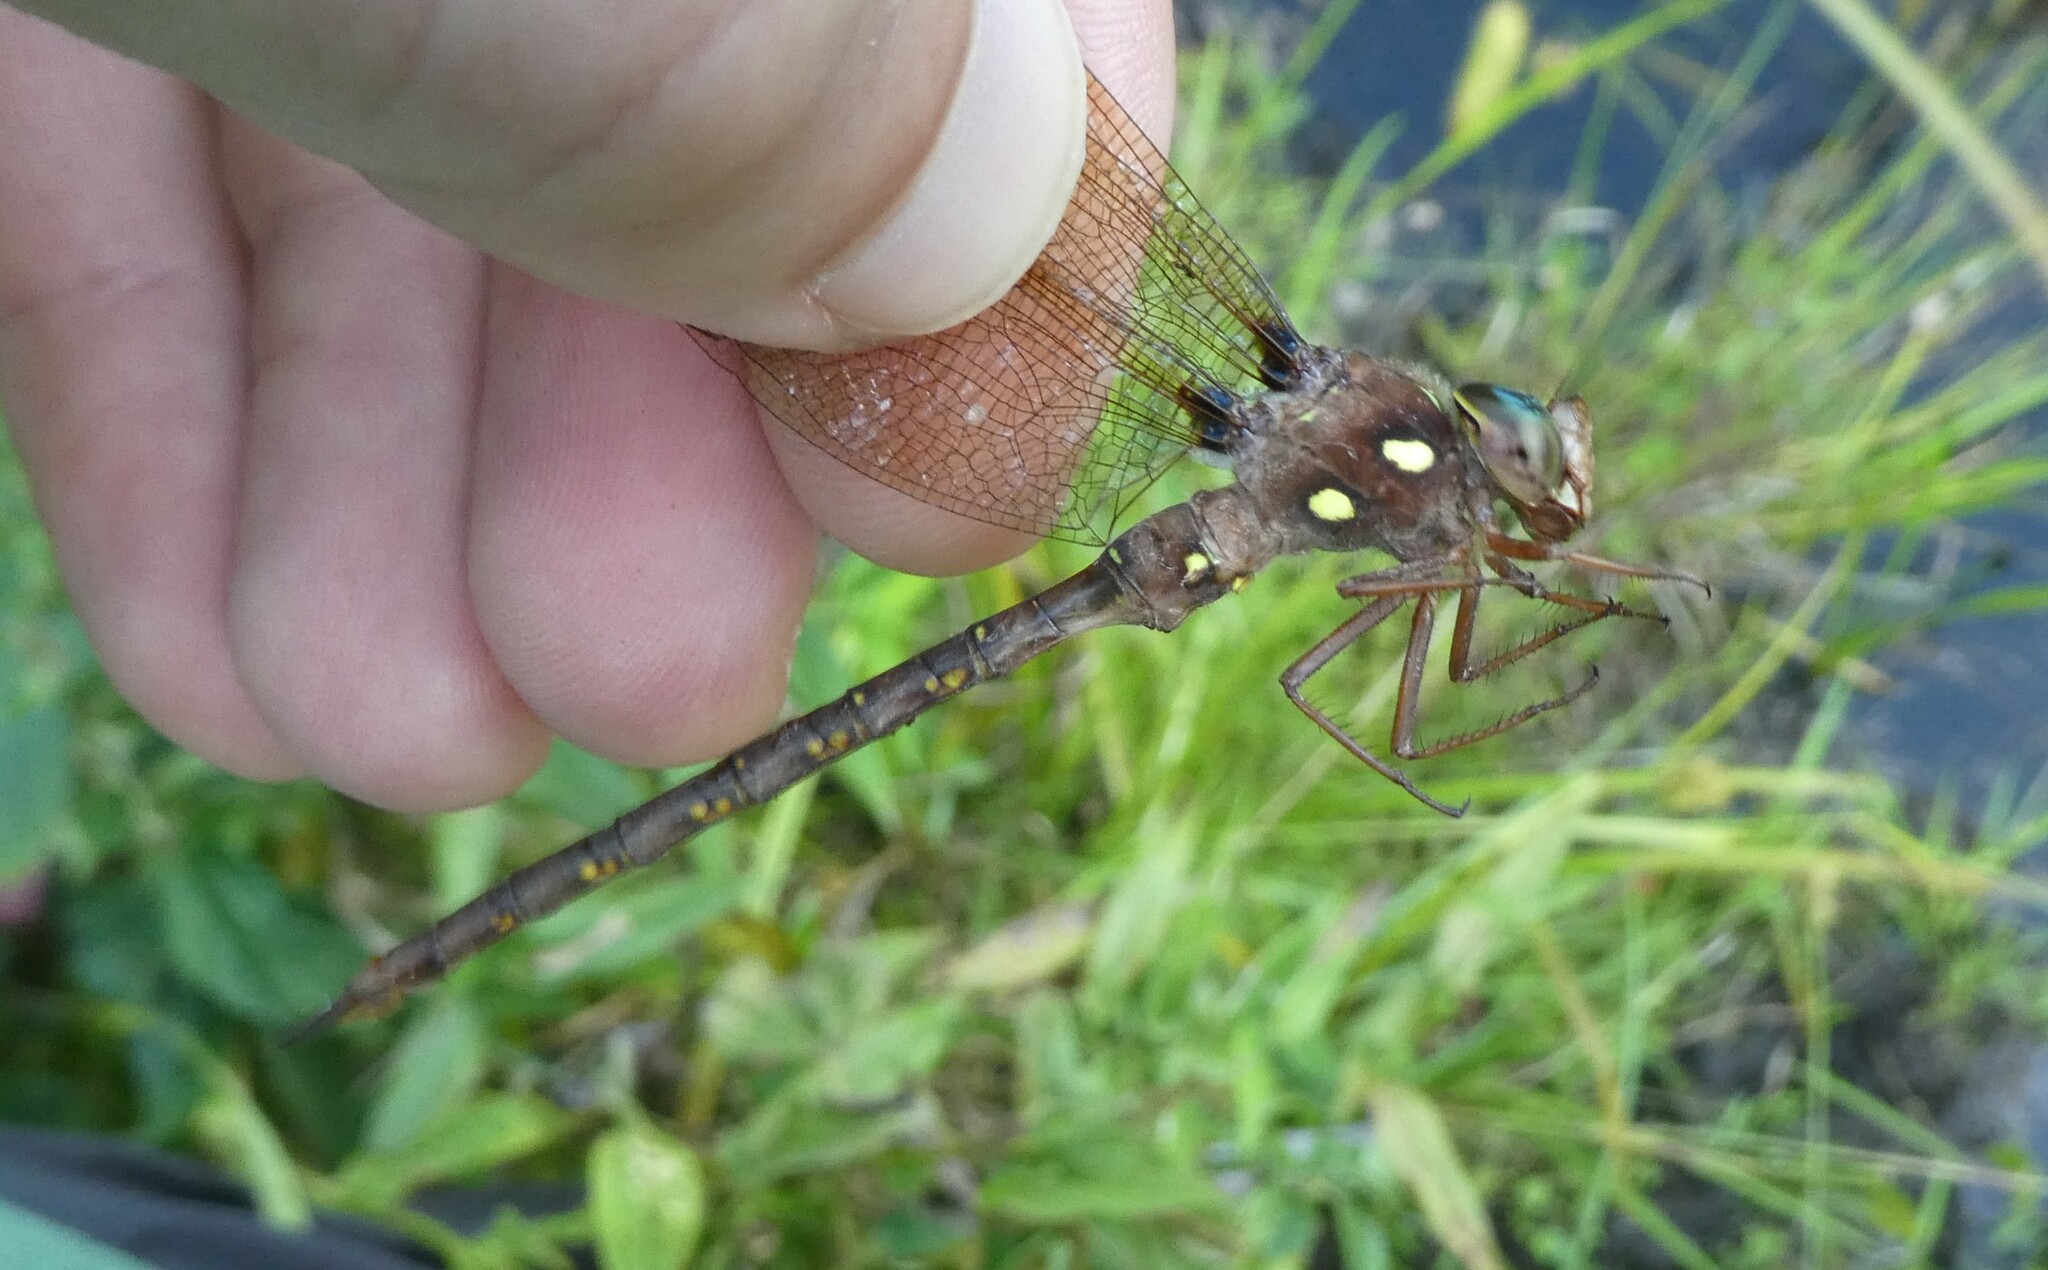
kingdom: Animalia
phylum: Arthropoda
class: Insecta
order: Odonata
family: Aeshnidae
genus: Boyeria
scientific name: Boyeria vinosa
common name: Fawn darner
